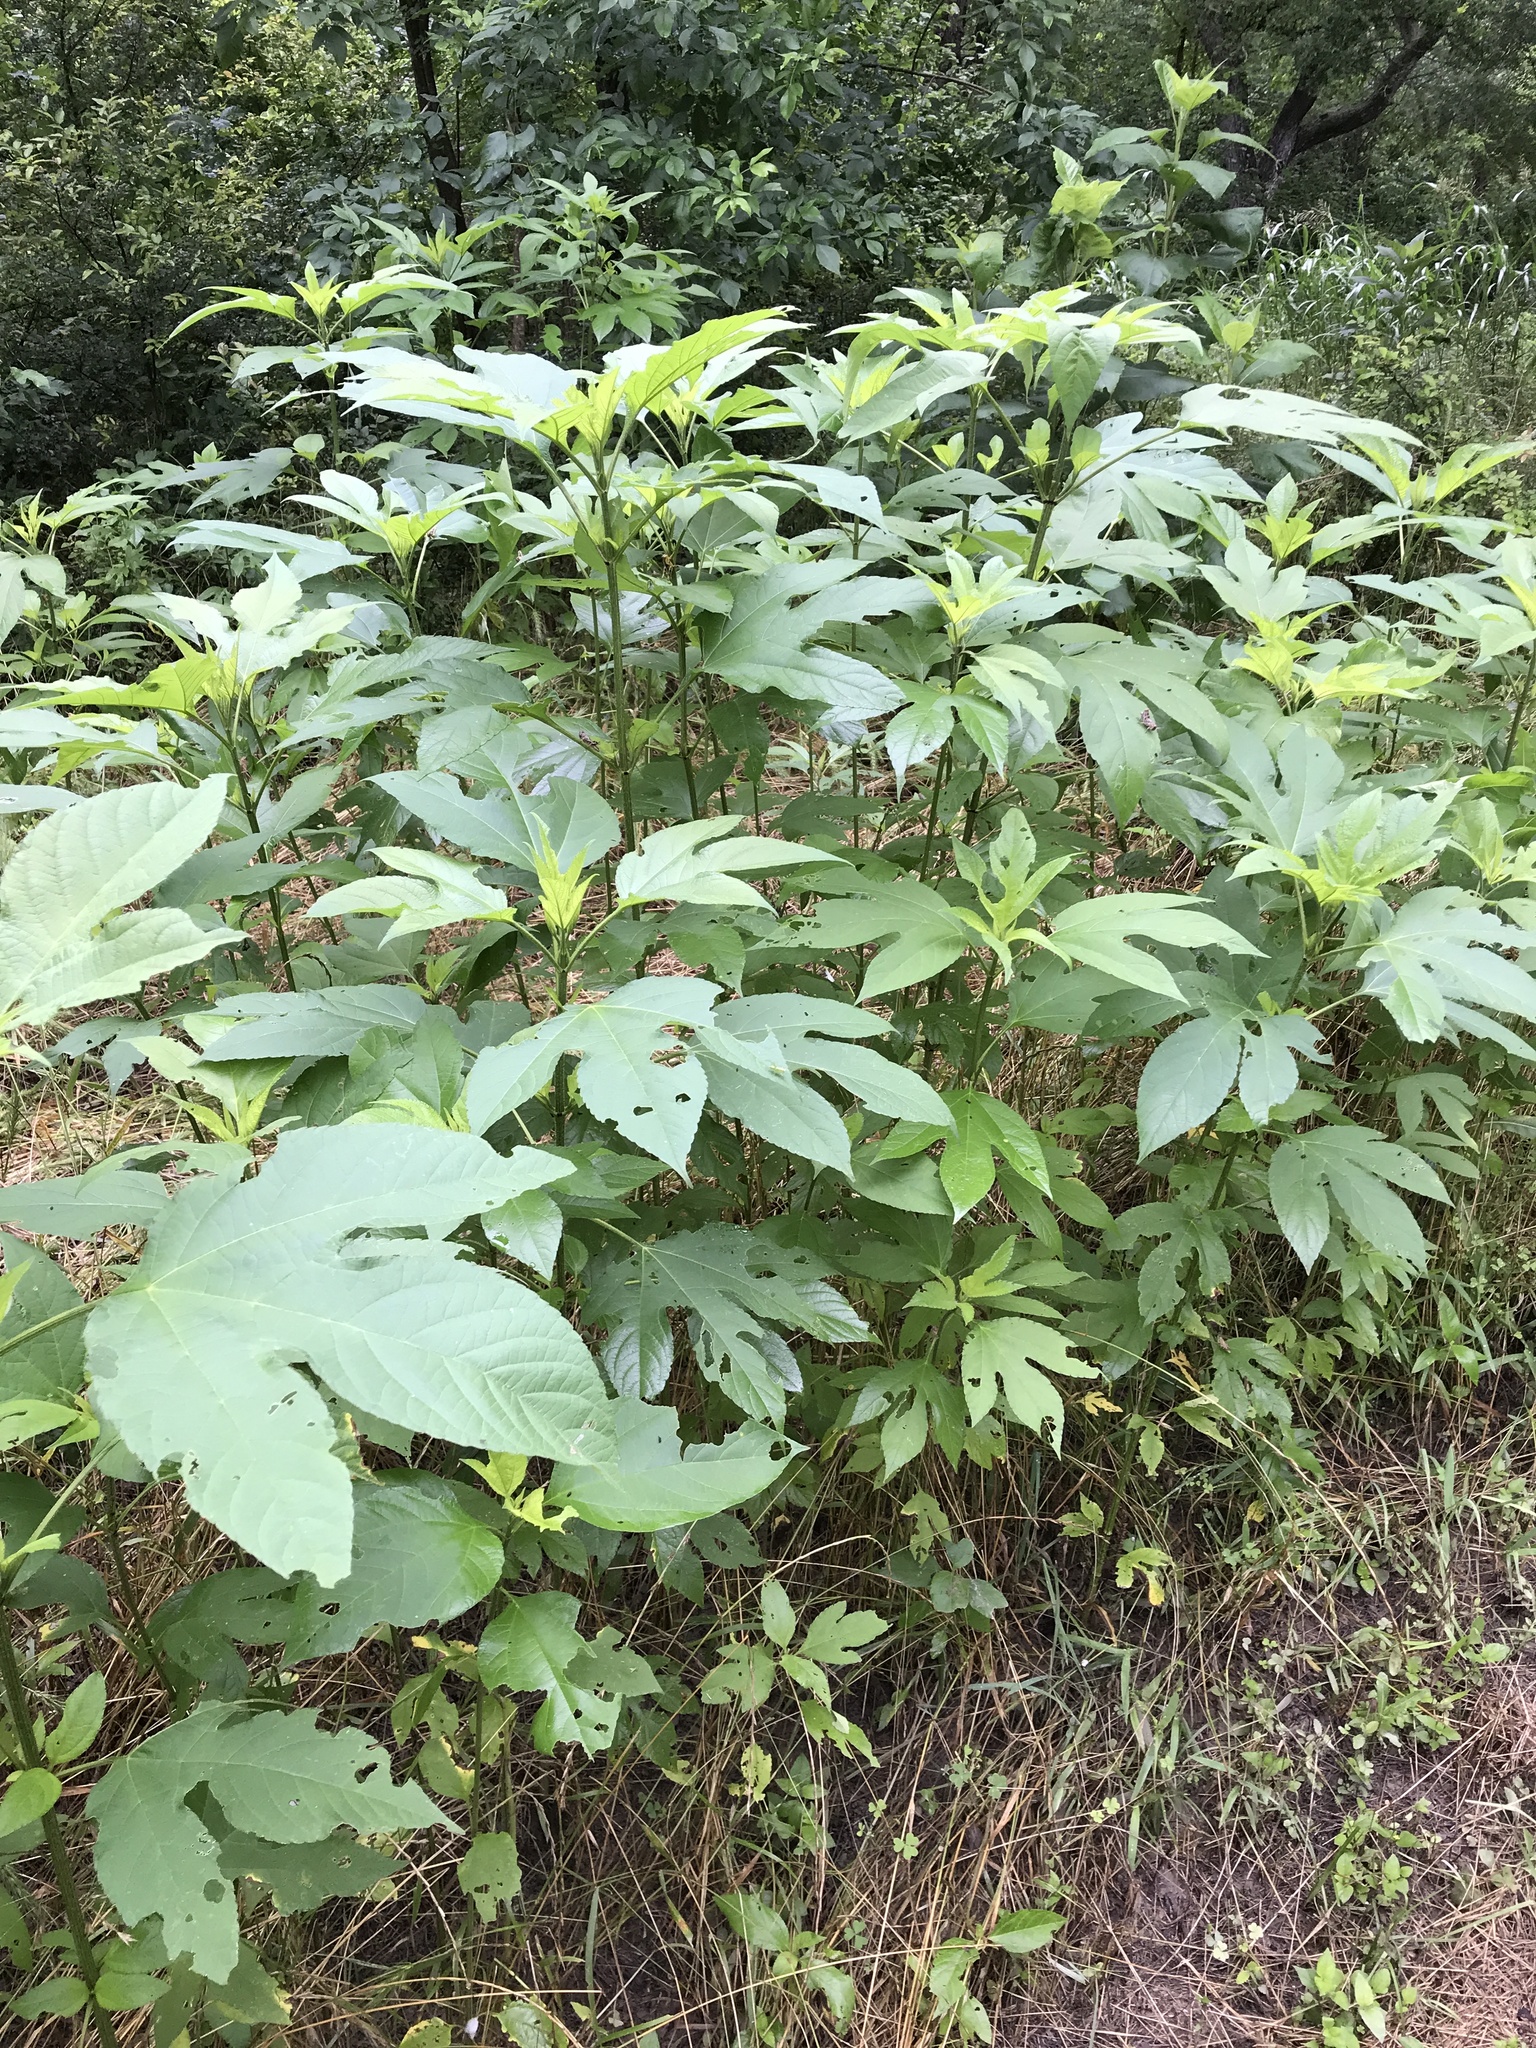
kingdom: Plantae
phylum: Tracheophyta
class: Magnoliopsida
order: Asterales
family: Asteraceae
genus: Ambrosia
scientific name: Ambrosia trifida
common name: Giant ragweed
